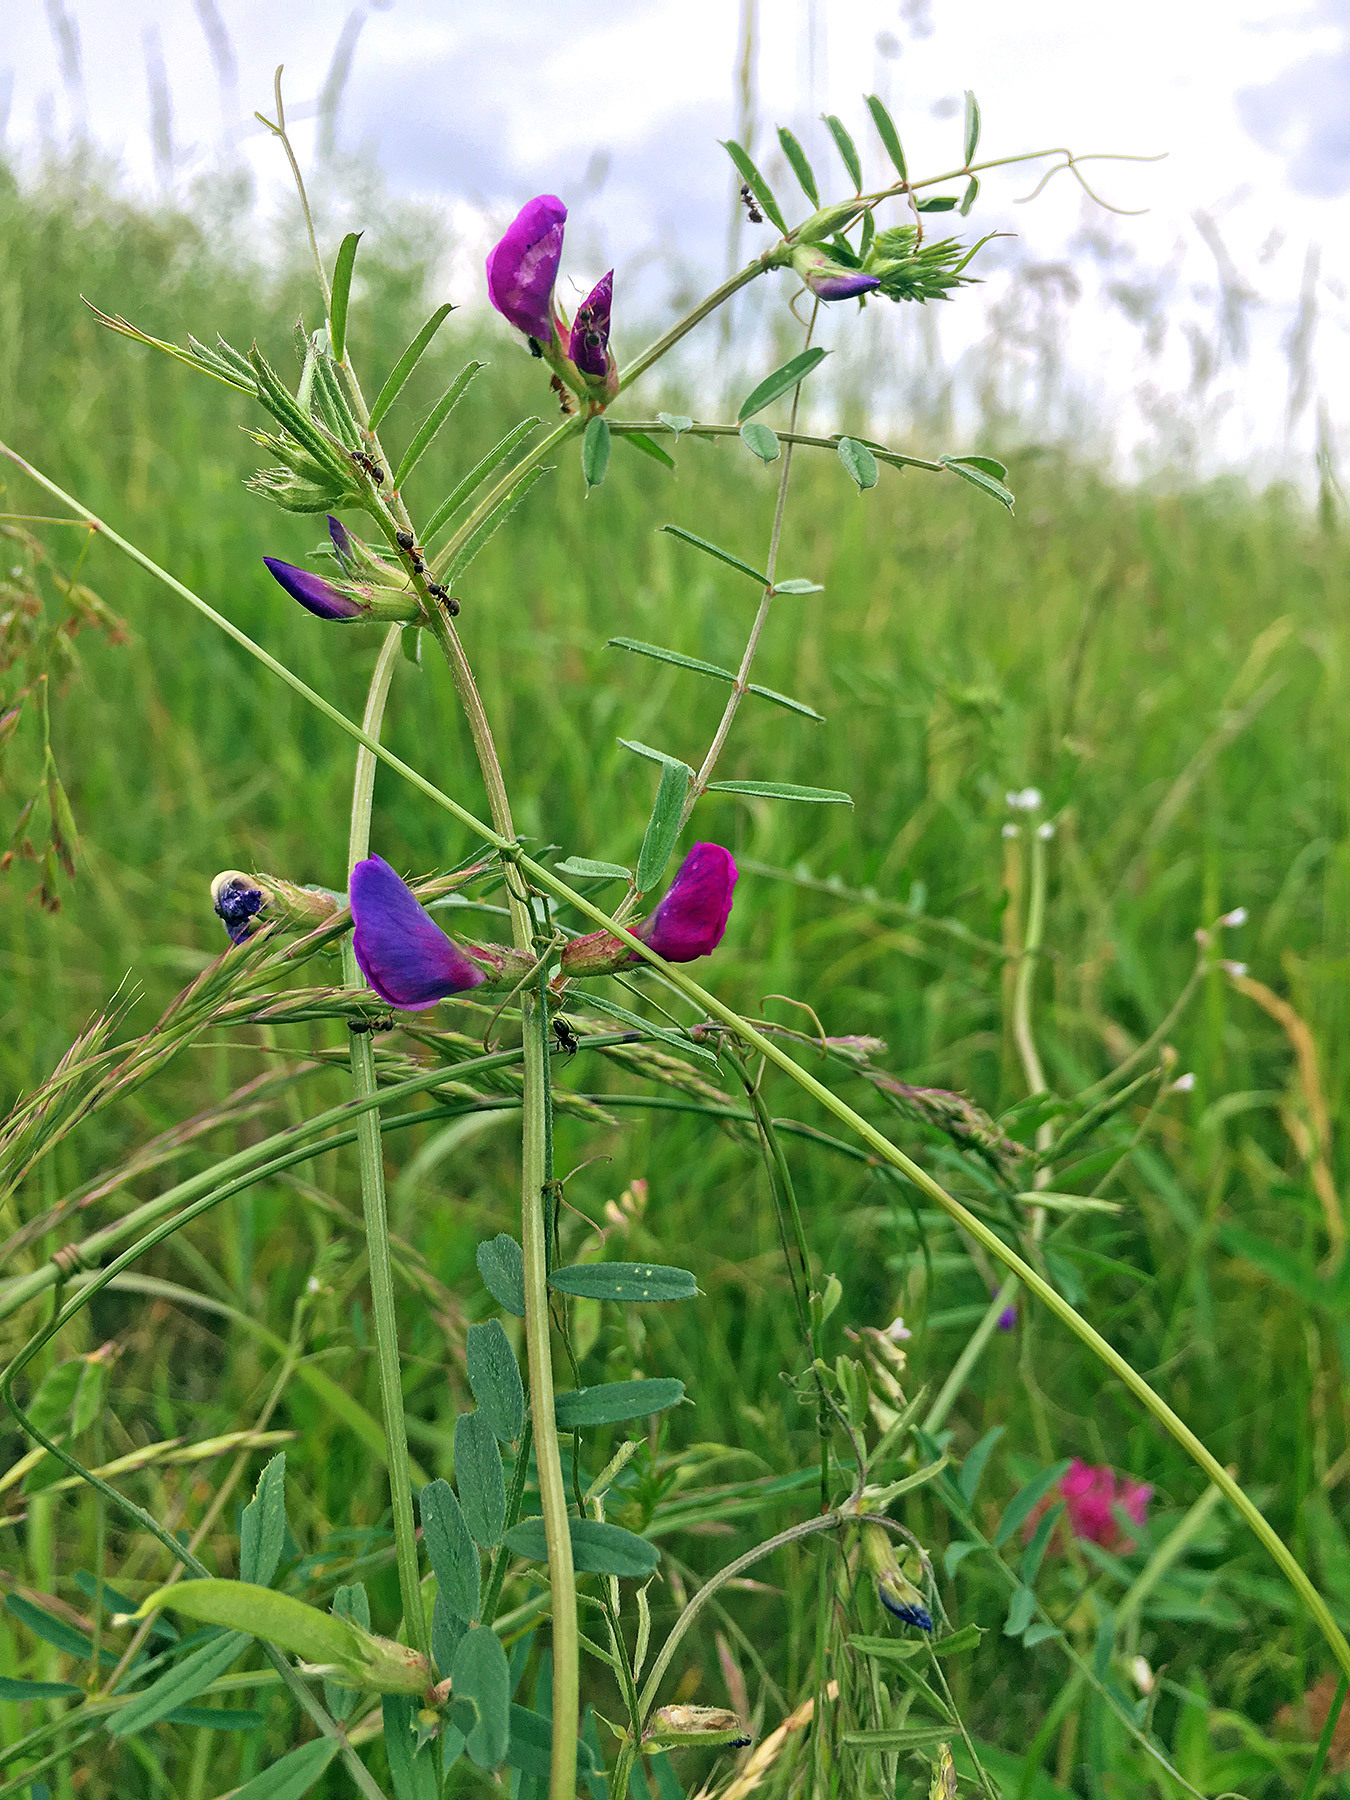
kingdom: Plantae
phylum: Tracheophyta
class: Magnoliopsida
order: Fabales
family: Fabaceae
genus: Vicia
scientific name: Vicia sativa
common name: Garden vetch
